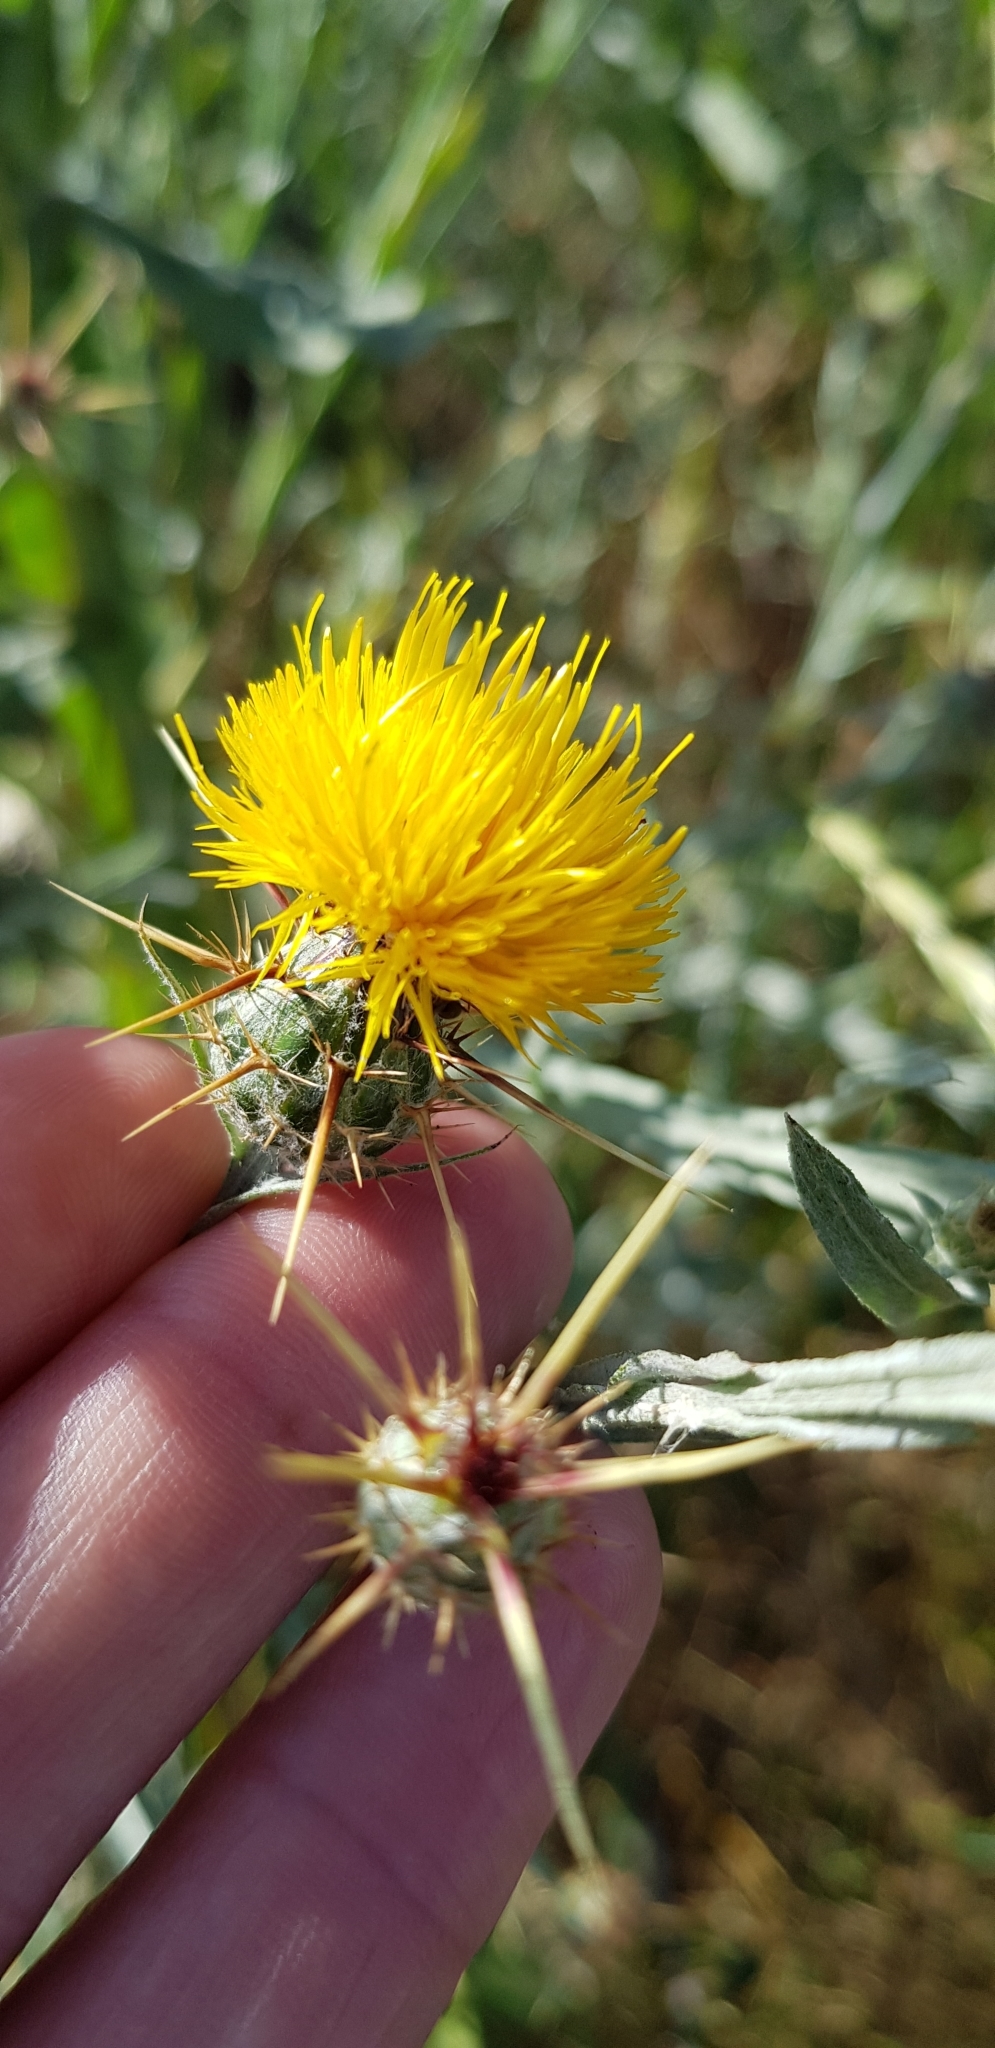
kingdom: Plantae
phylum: Tracheophyta
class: Magnoliopsida
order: Asterales
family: Asteraceae
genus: Centaurea
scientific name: Centaurea solstitialis
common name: Yellow star-thistle
